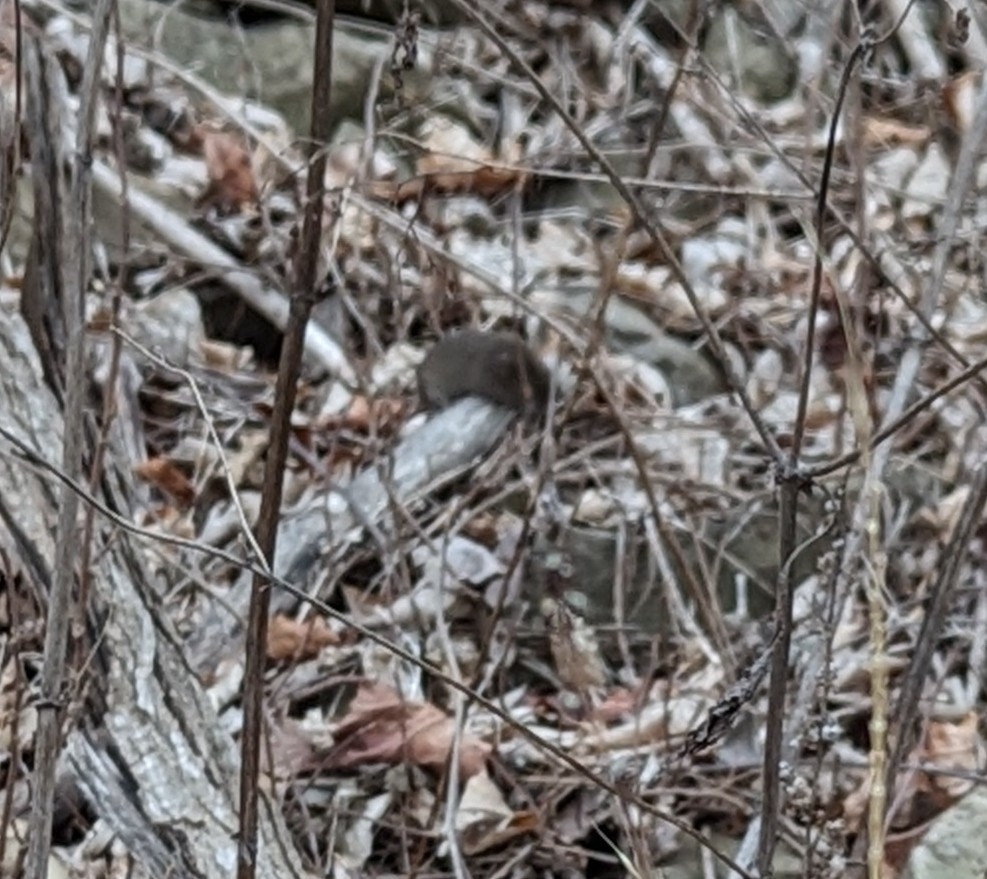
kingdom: Animalia
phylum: Chordata
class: Mammalia
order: Rodentia
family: Cricetidae
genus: Microtus
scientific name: Microtus pennsylvanicus
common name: Meadow vole
